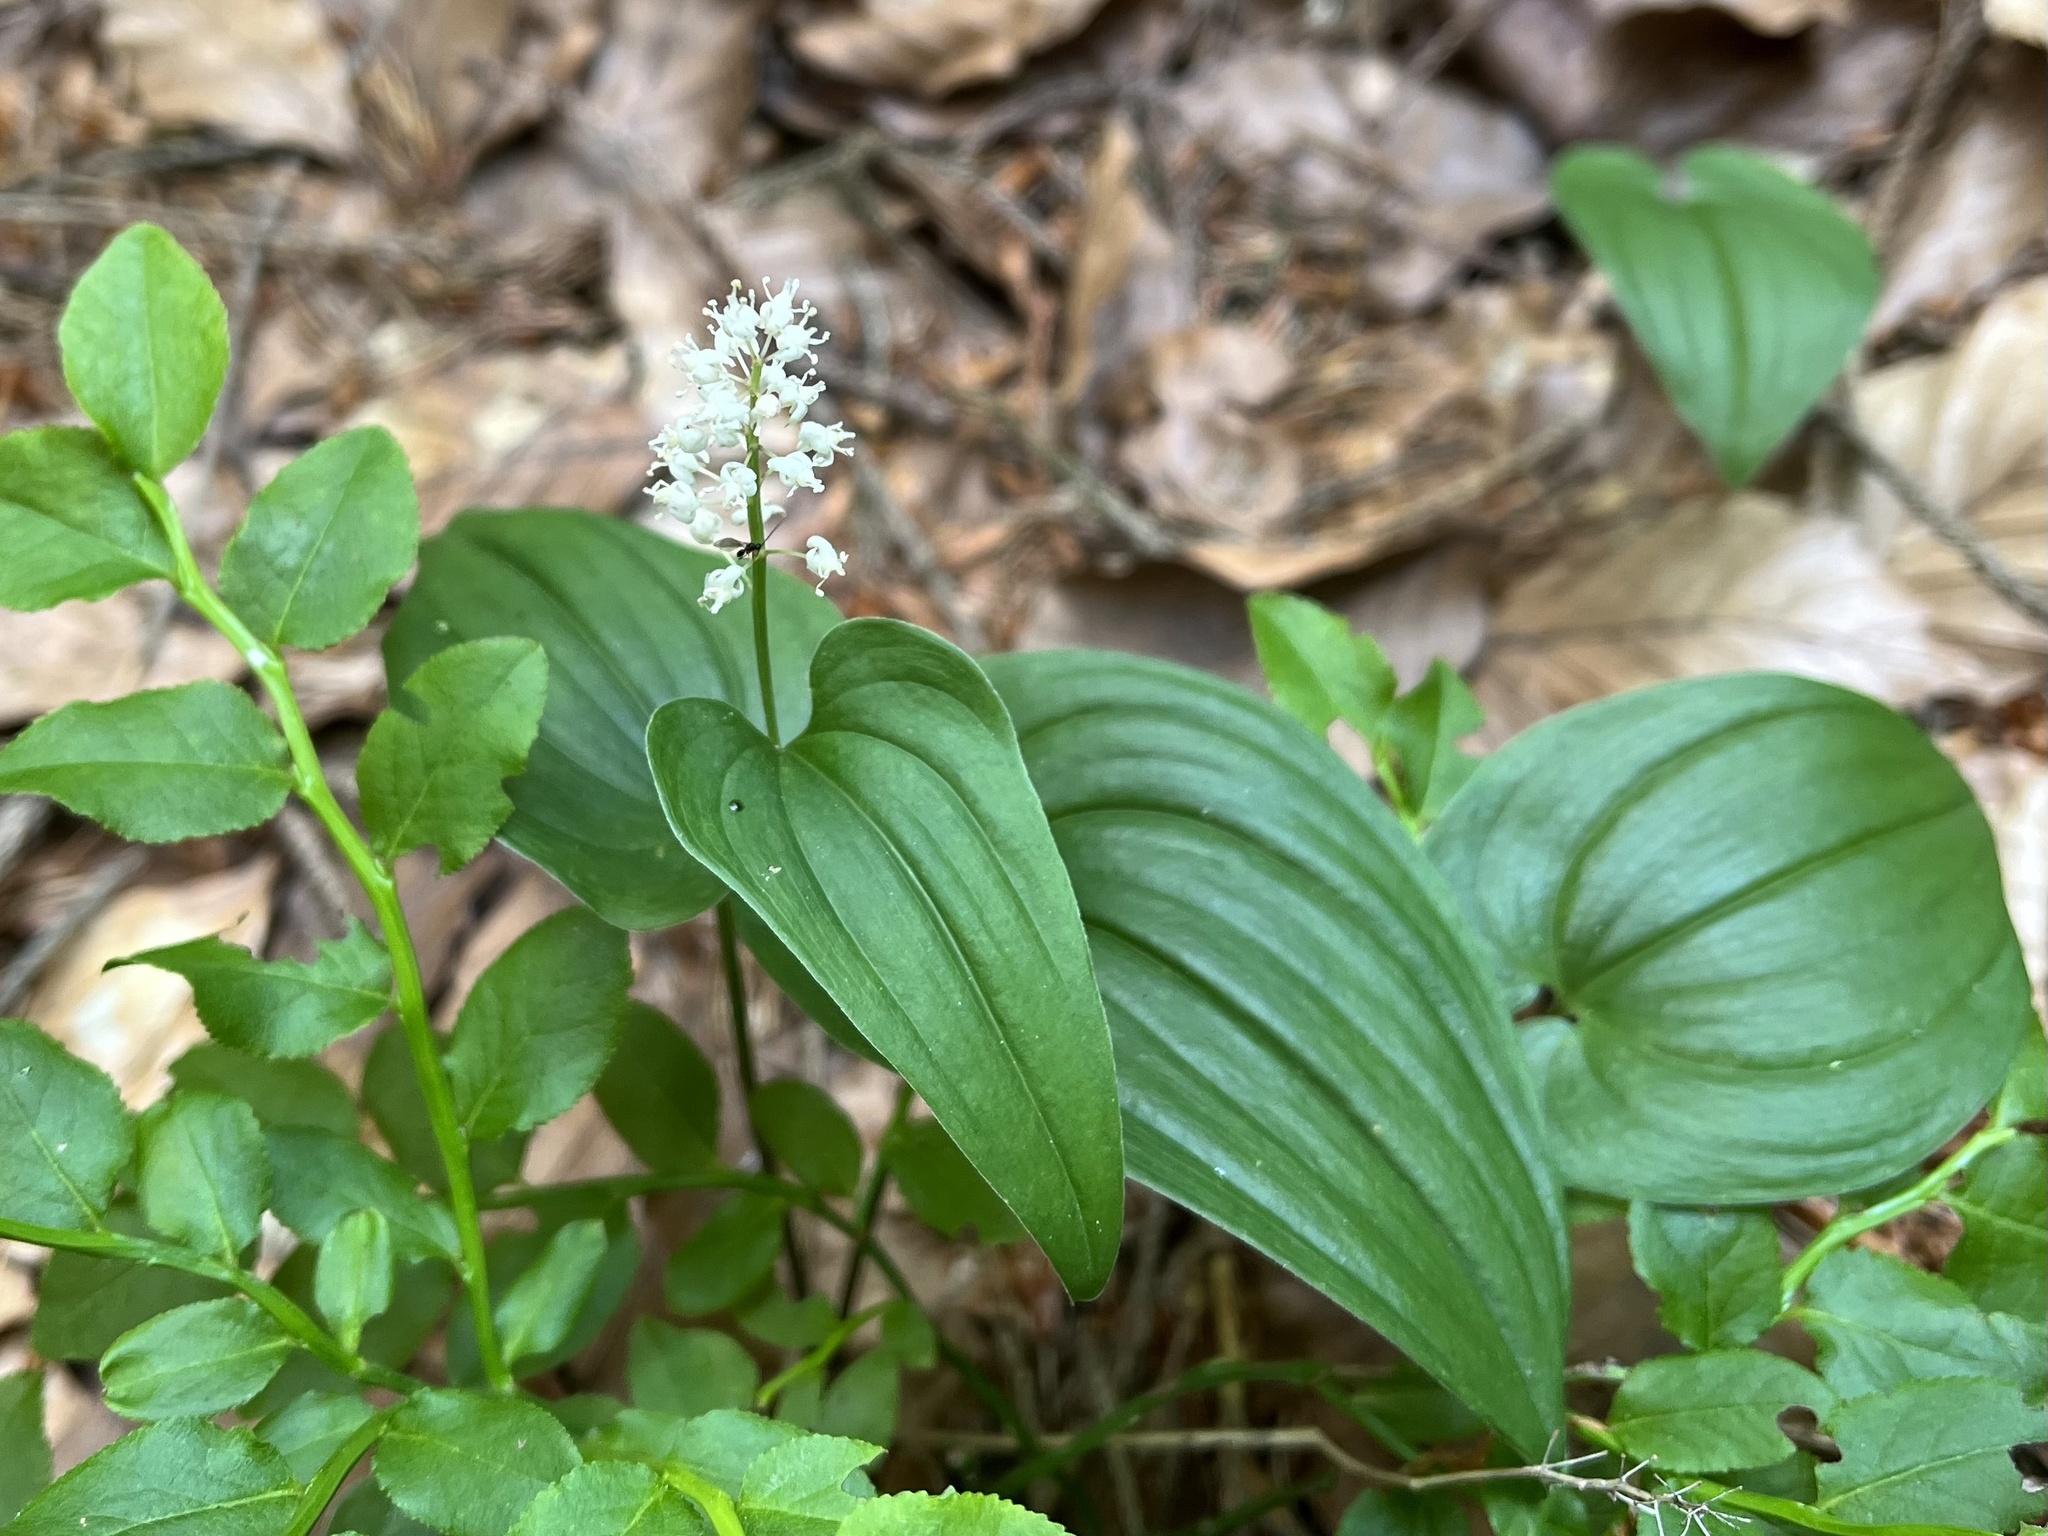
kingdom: Plantae
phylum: Tracheophyta
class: Liliopsida
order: Asparagales
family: Asparagaceae
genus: Maianthemum
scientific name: Maianthemum bifolium
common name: May lily
